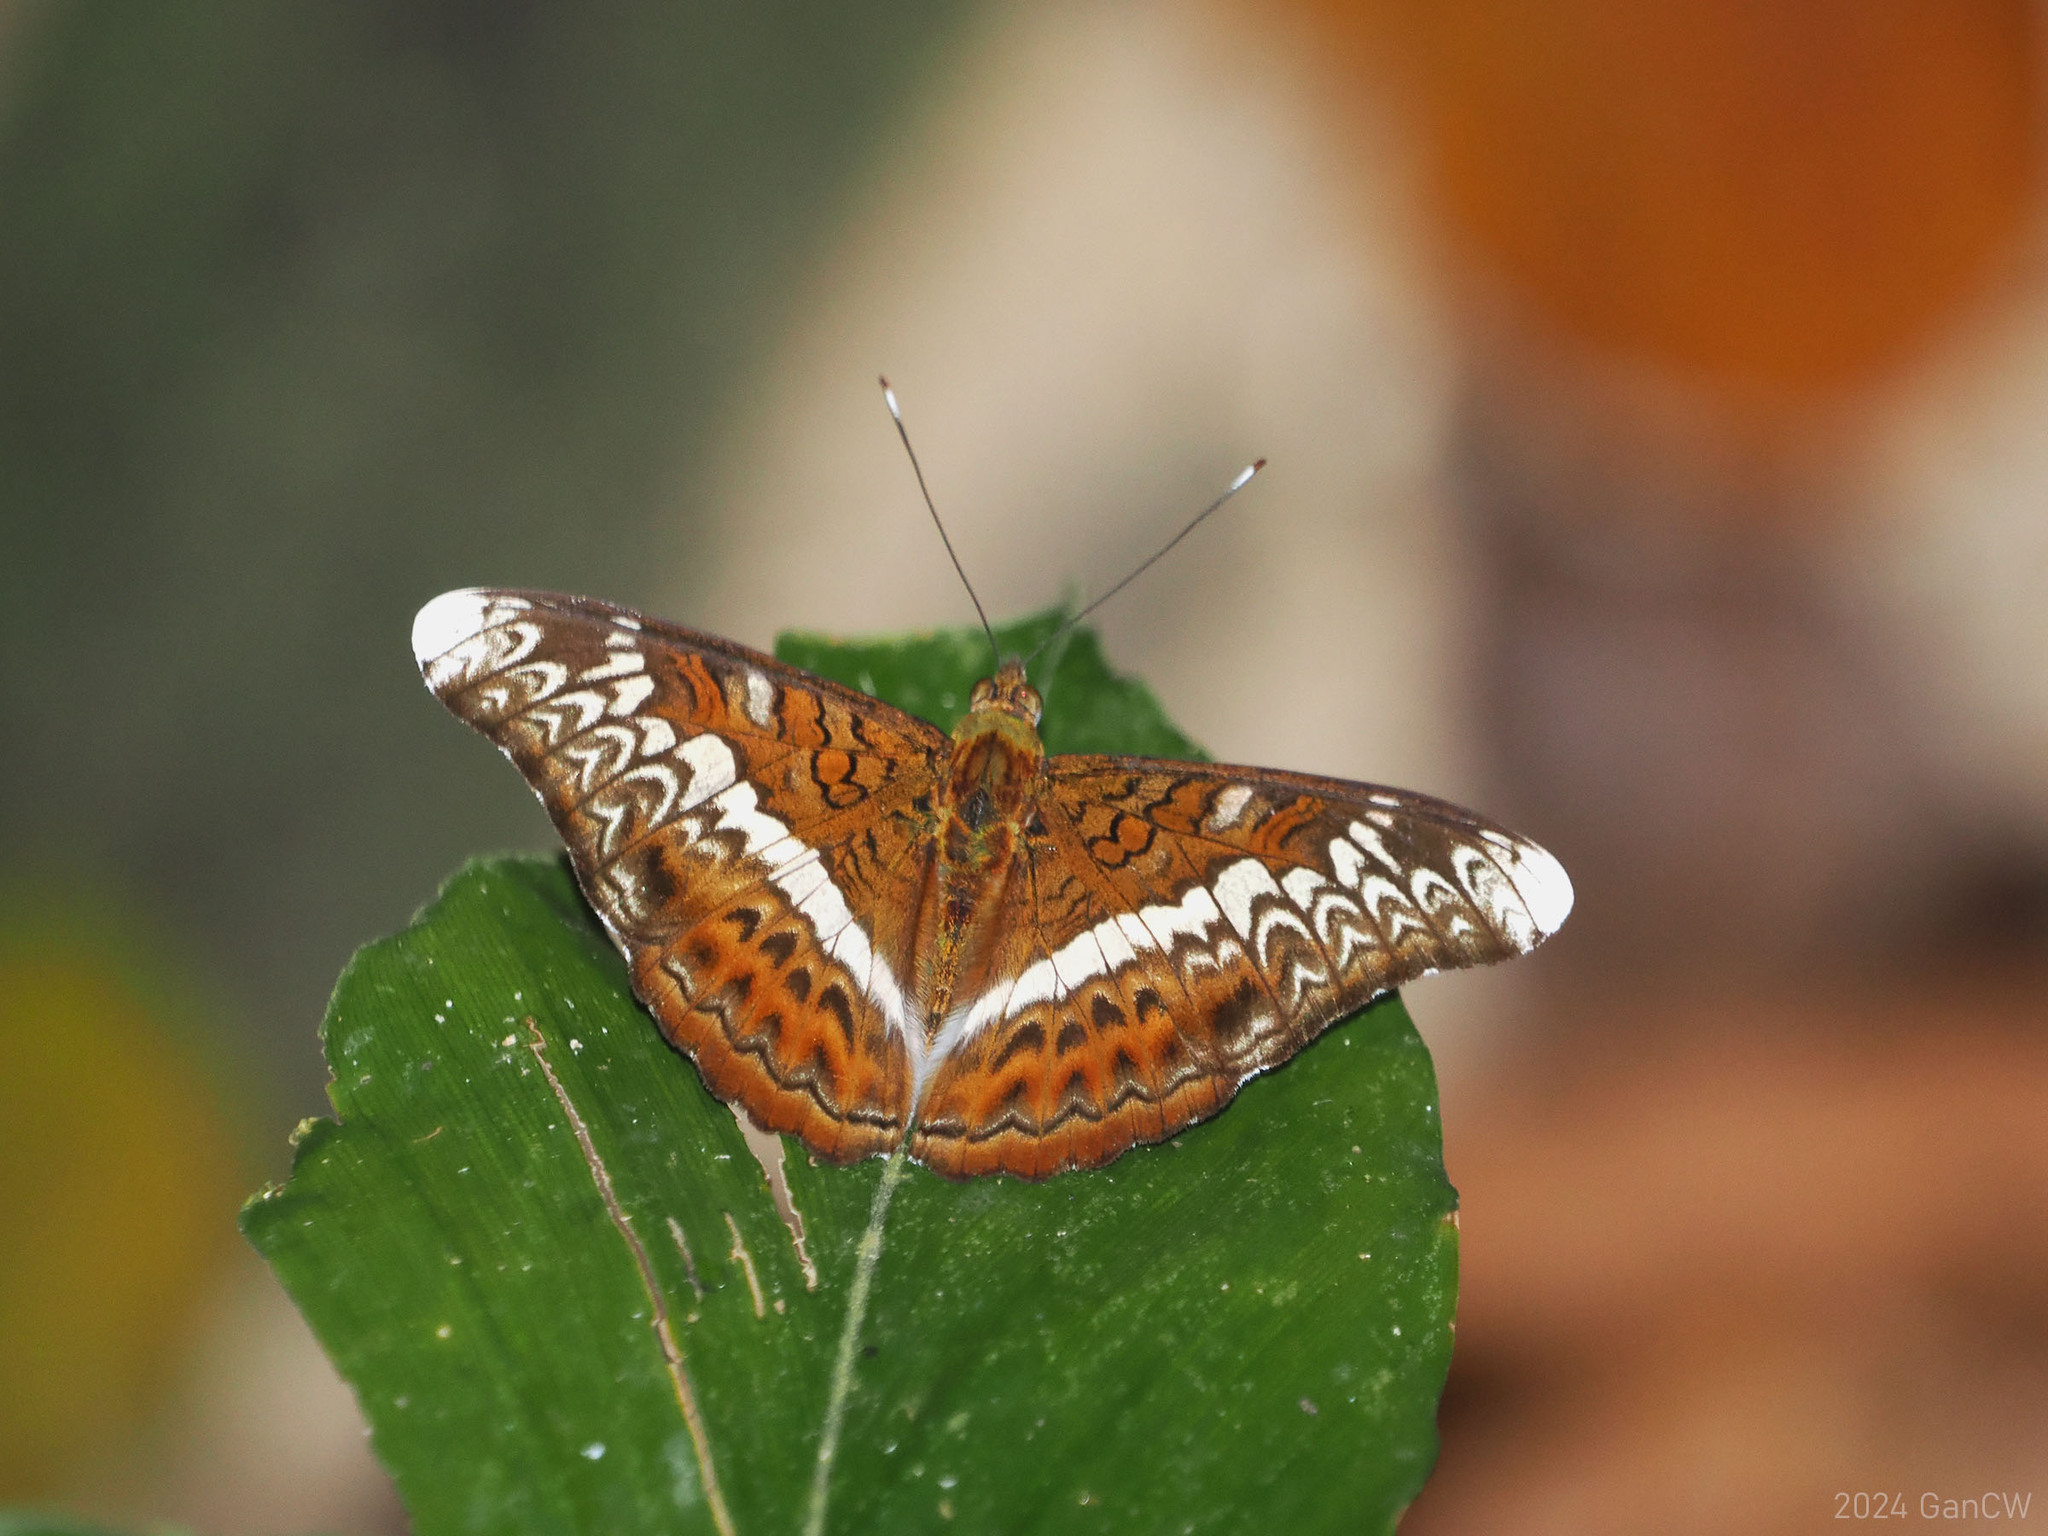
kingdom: Animalia
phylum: Arthropoda
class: Insecta
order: Lepidoptera
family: Nymphalidae
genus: Lebadea
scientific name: Lebadea martha
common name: Knight
